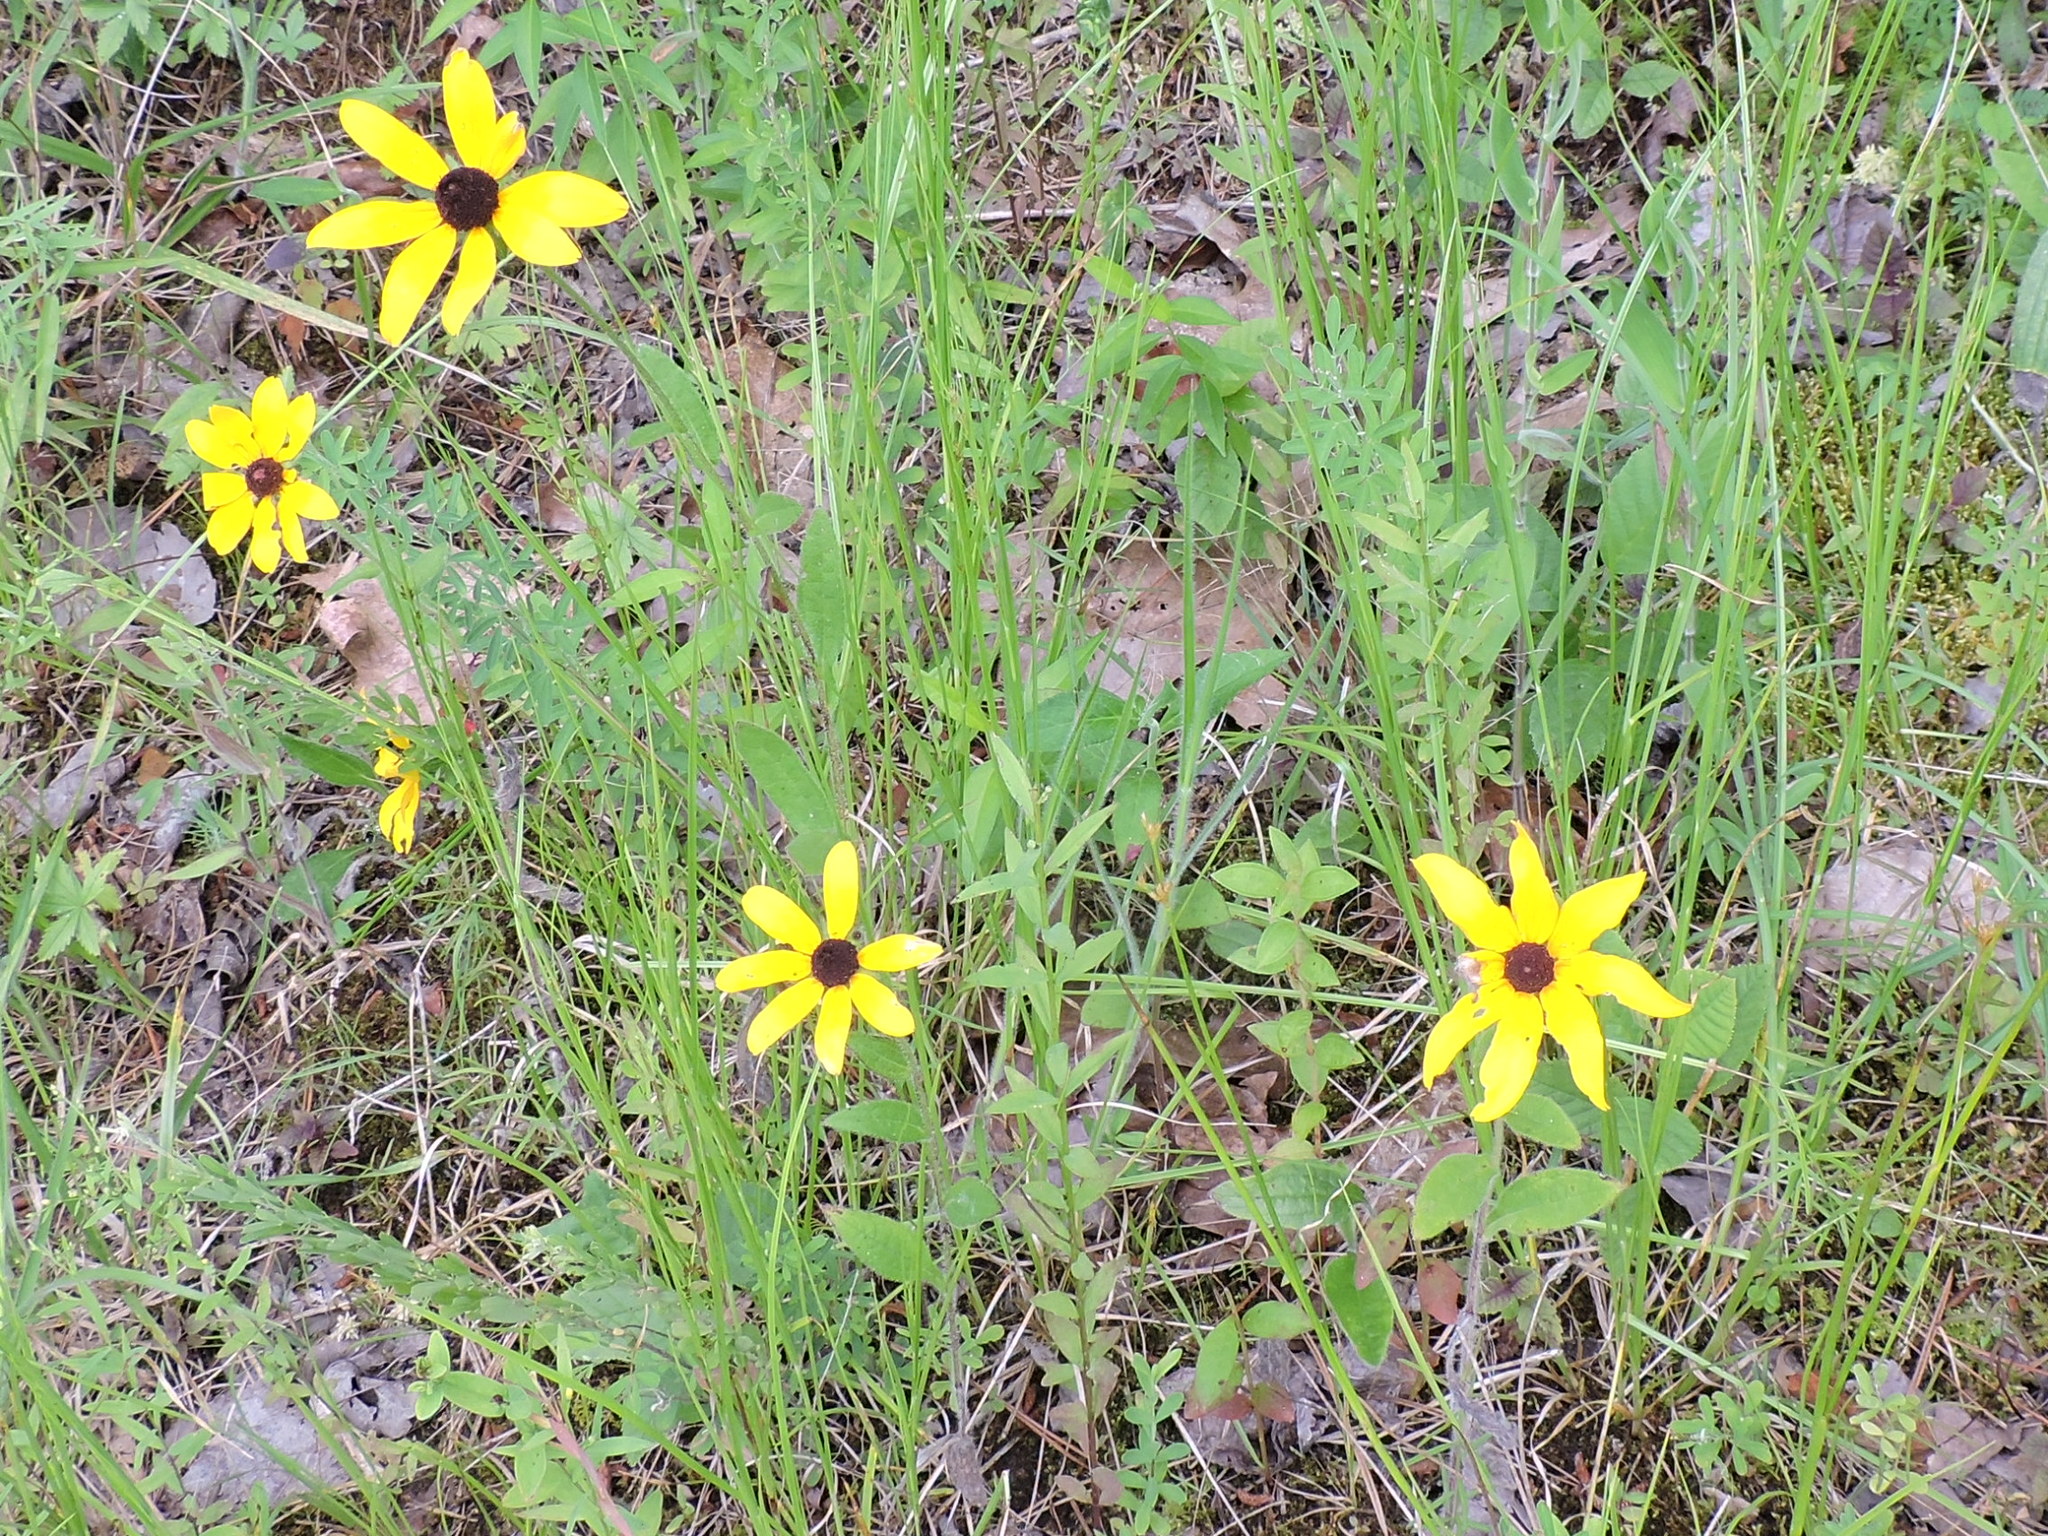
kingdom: Plantae
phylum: Tracheophyta
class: Magnoliopsida
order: Asterales
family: Asteraceae
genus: Rudbeckia
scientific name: Rudbeckia hirta
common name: Black-eyed-susan
